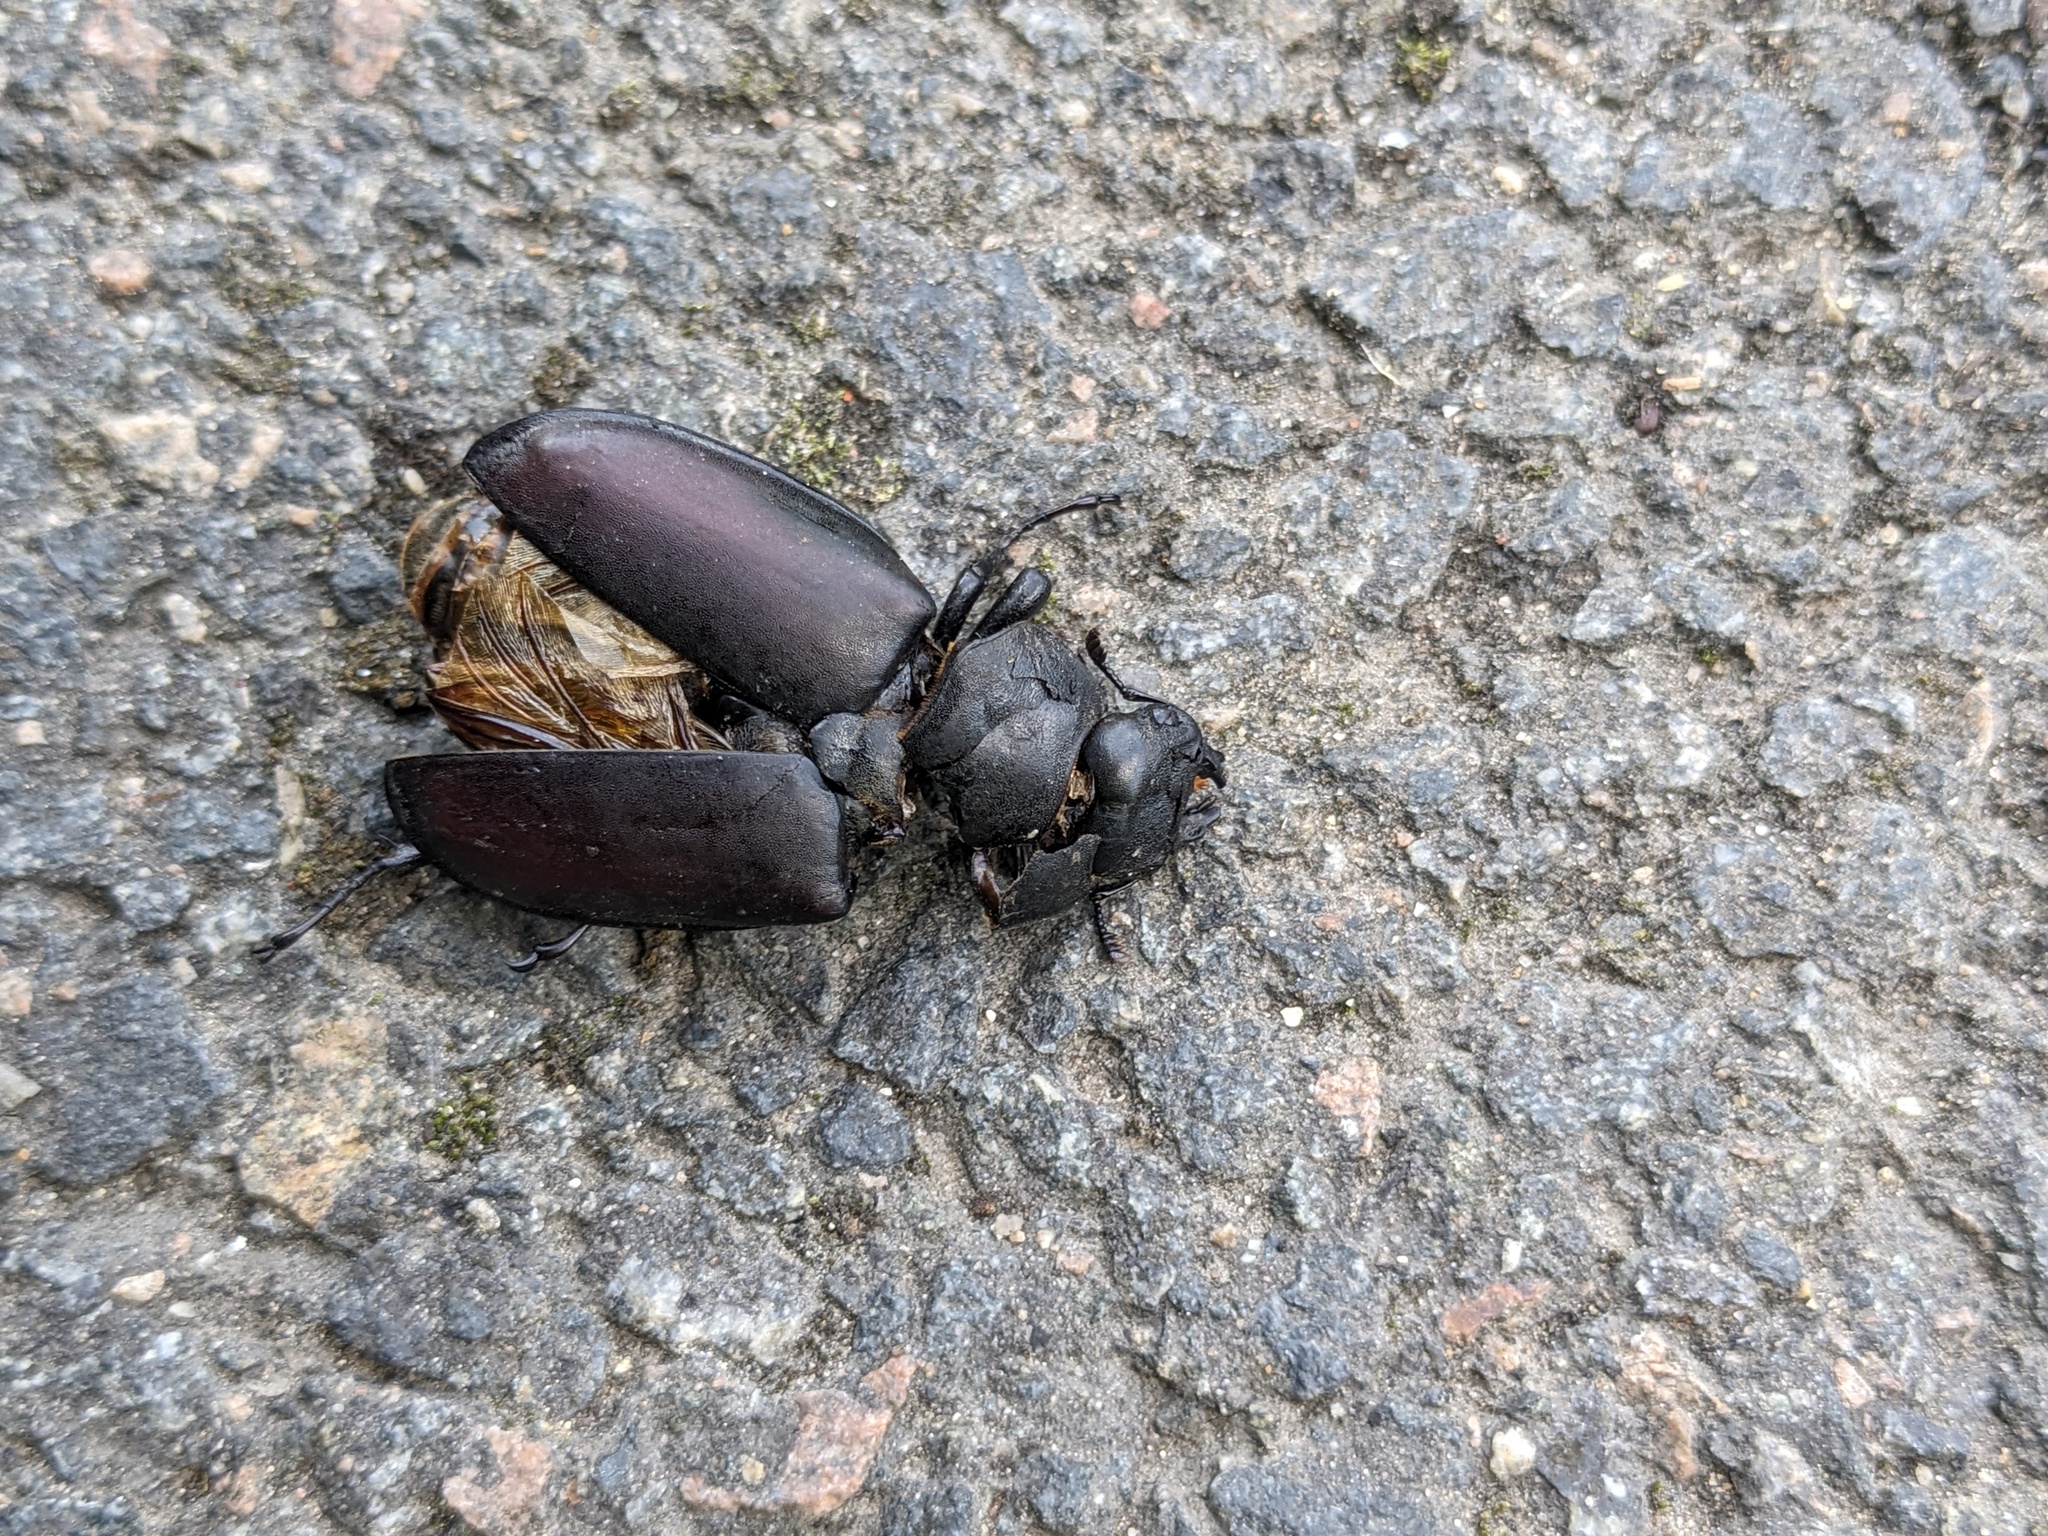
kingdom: Animalia
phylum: Arthropoda
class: Insecta
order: Coleoptera
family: Lucanidae
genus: Lucanus
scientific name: Lucanus cervus
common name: Stag beetle
